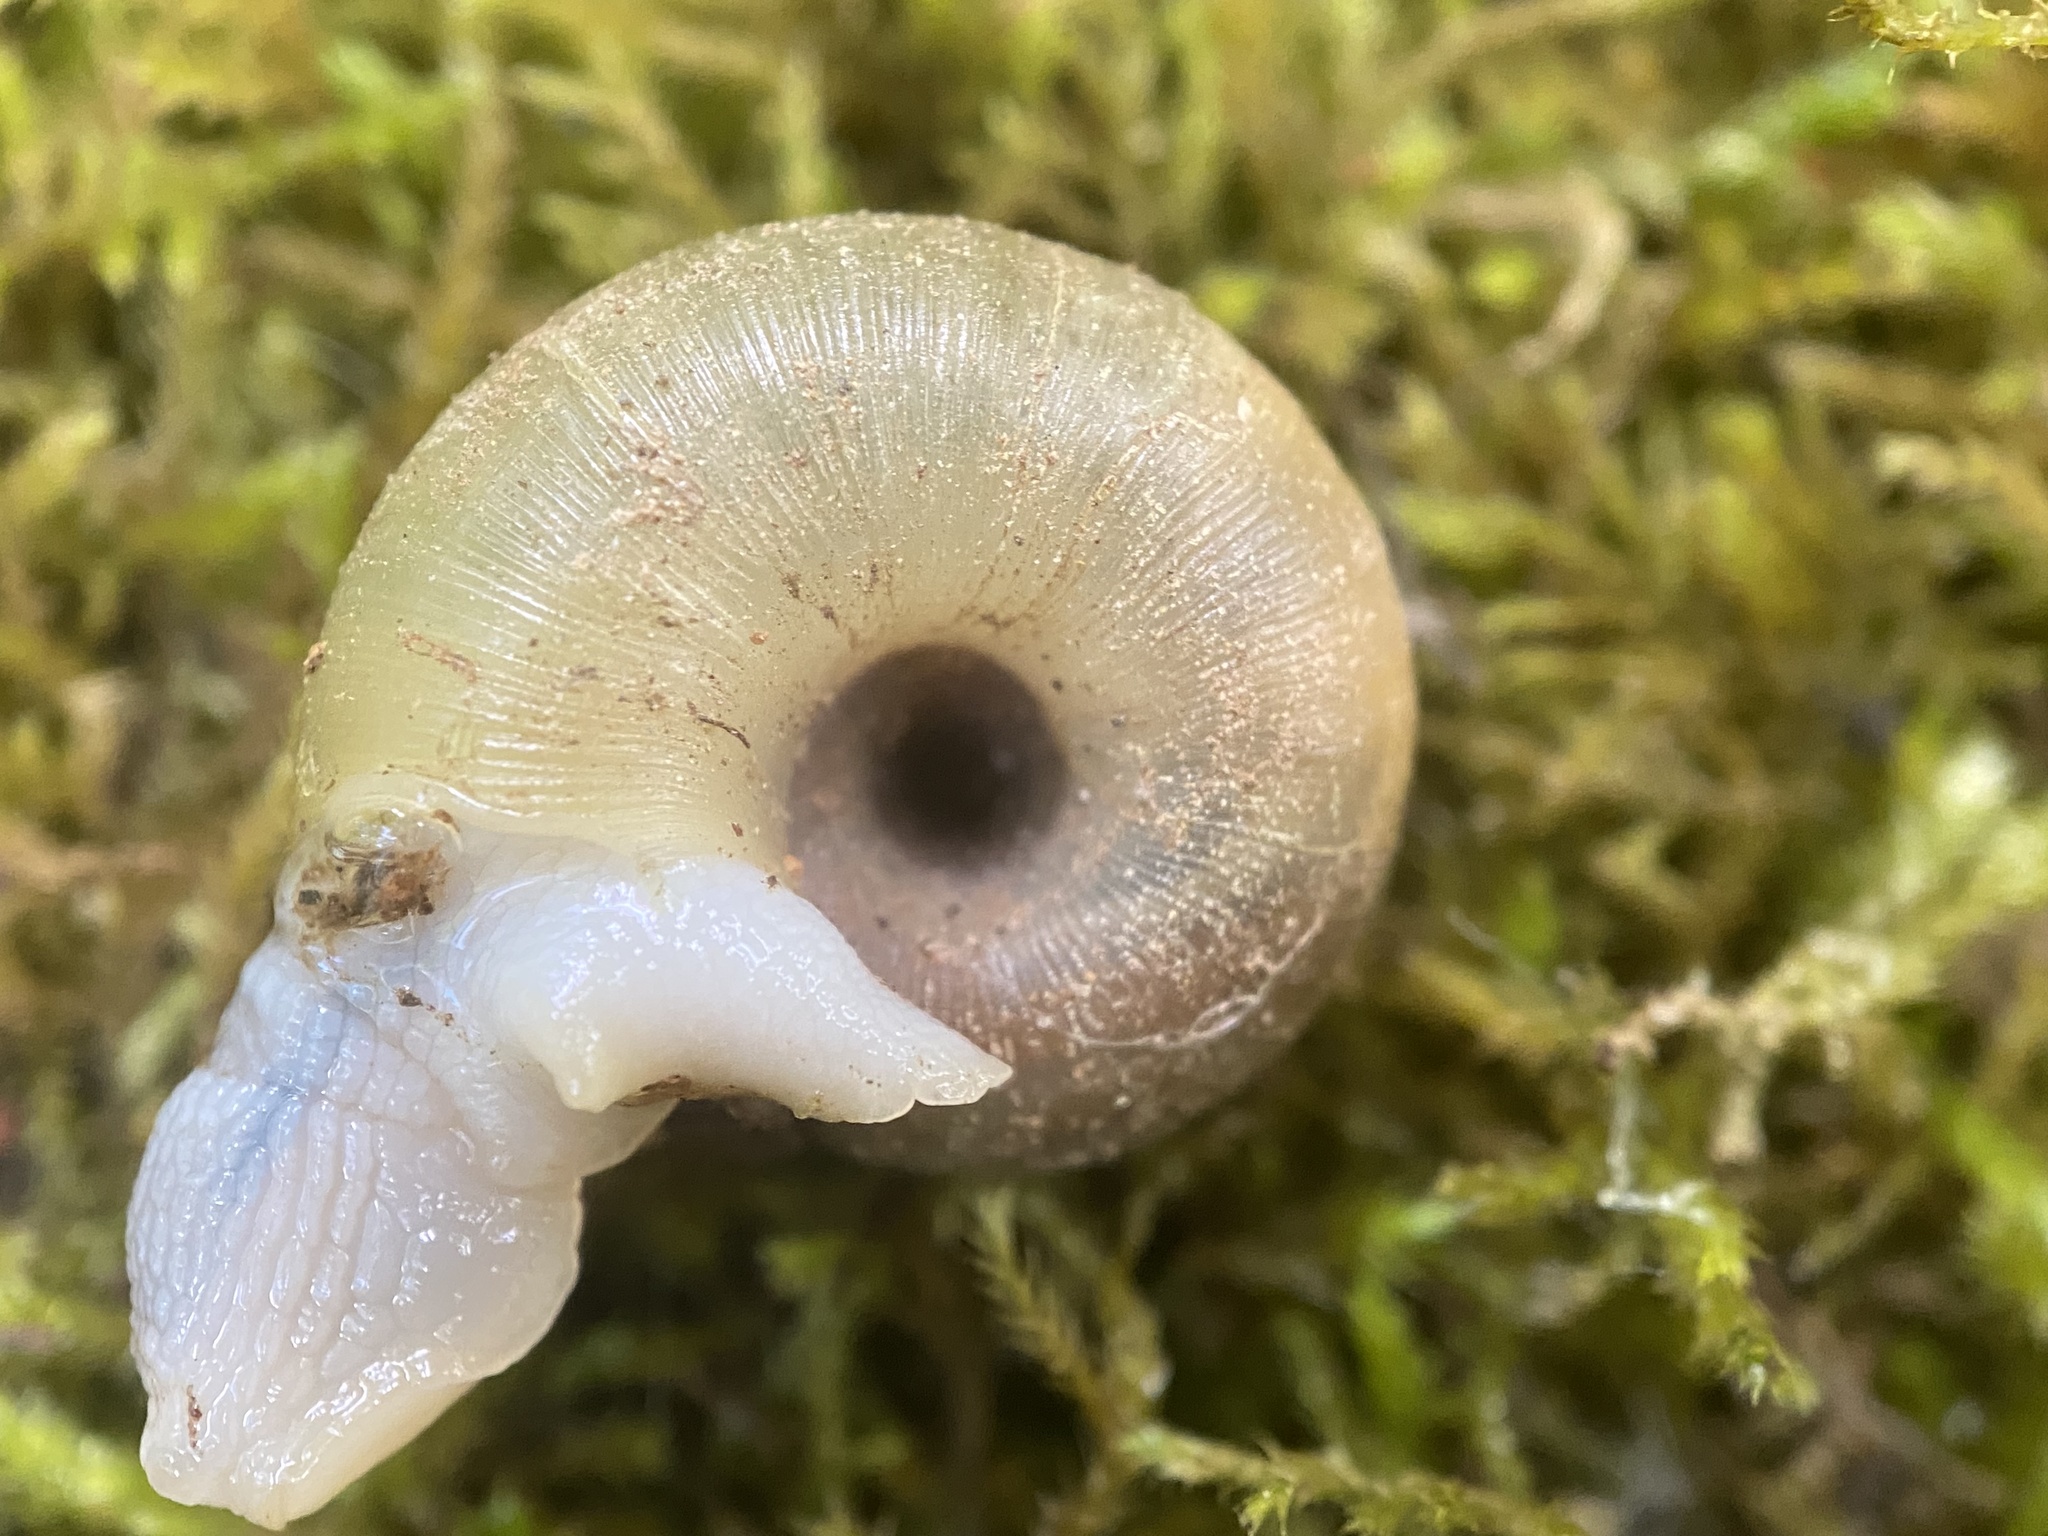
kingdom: Animalia
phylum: Mollusca
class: Gastropoda
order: Stylommatophora
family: Haplotrematidae
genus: Ancotrema
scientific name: Ancotrema sportella
